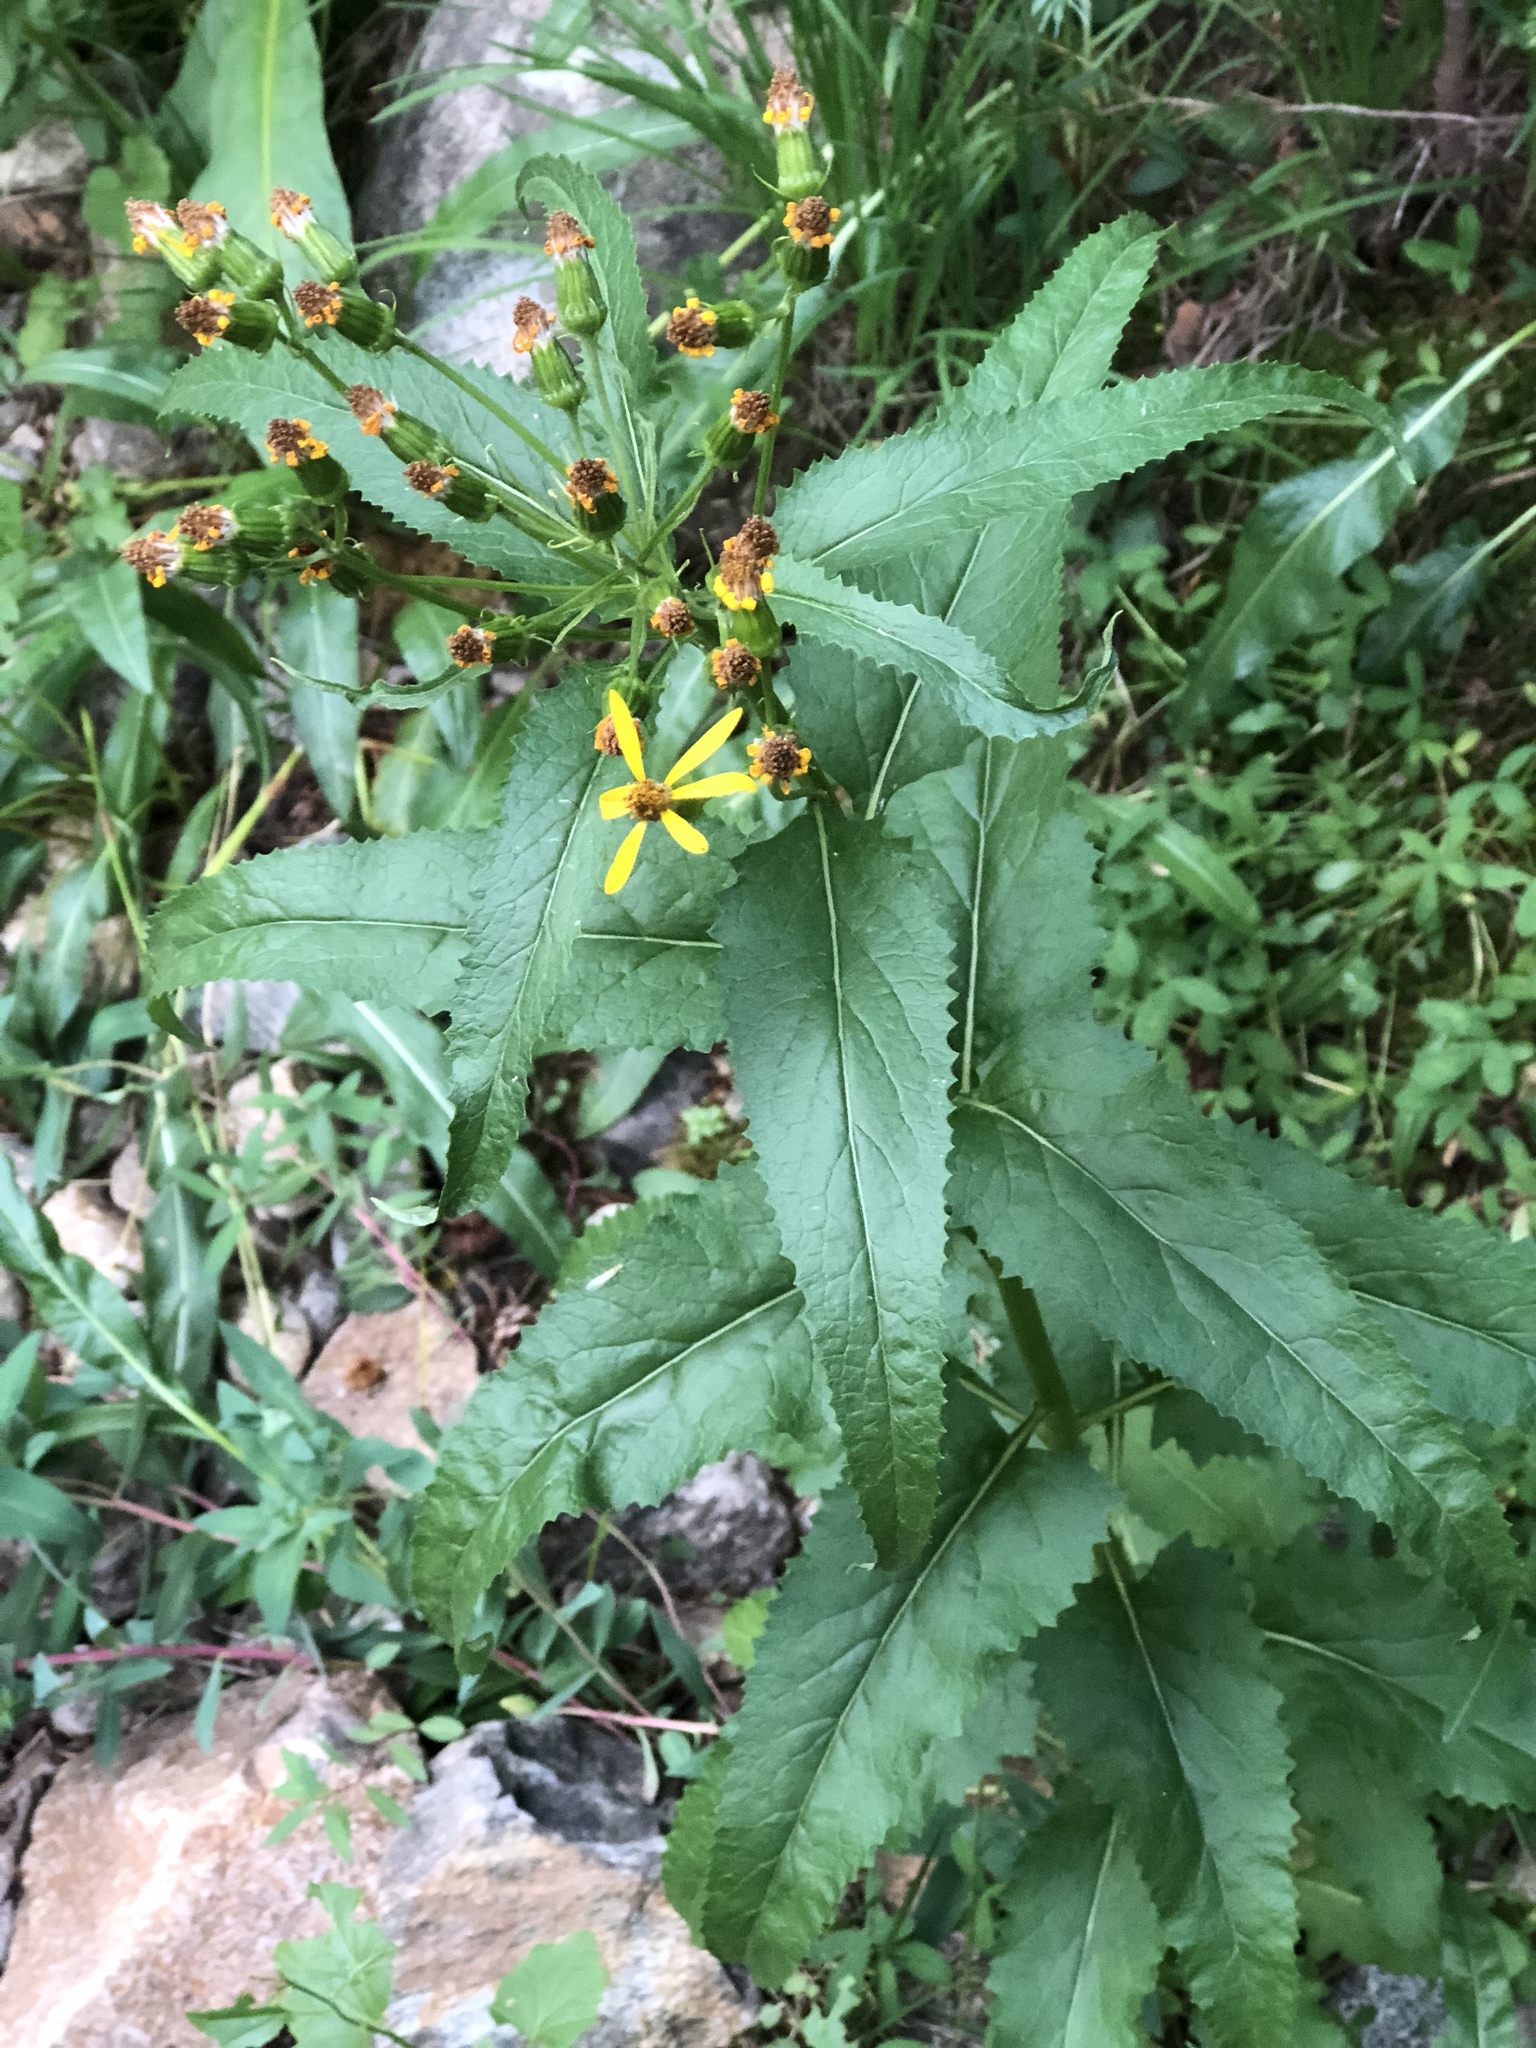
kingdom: Plantae
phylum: Tracheophyta
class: Magnoliopsida
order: Asterales
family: Asteraceae
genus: Senecio
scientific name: Senecio triangularis
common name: Arrowleaf butterweed
